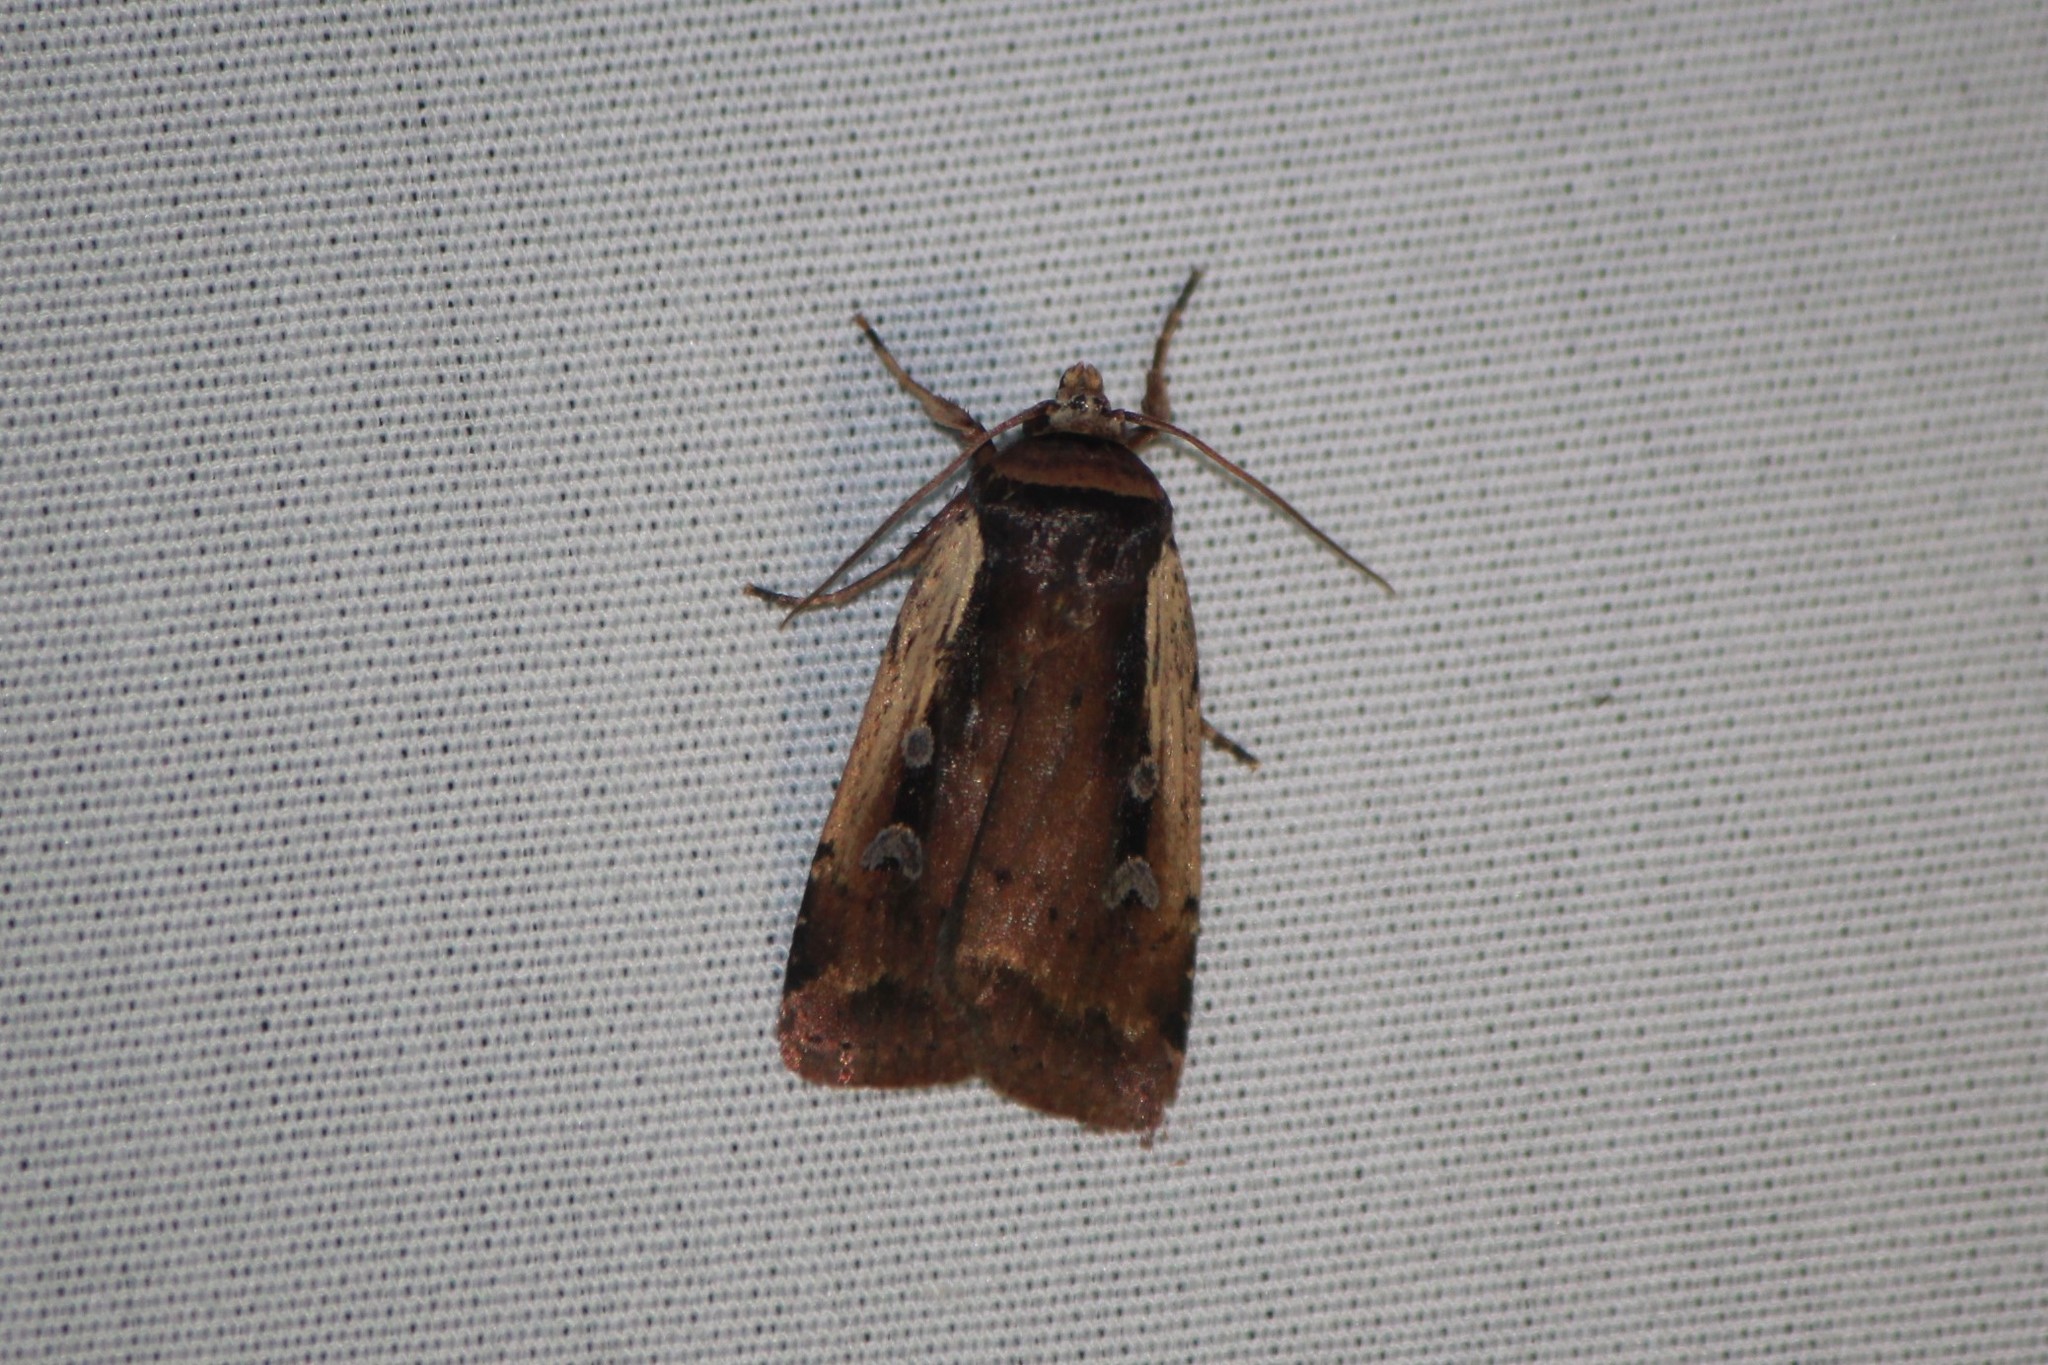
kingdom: Animalia
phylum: Arthropoda
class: Insecta
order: Lepidoptera
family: Noctuidae
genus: Ochropleura
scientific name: Ochropleura implecta
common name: Flame-shouldered dart
